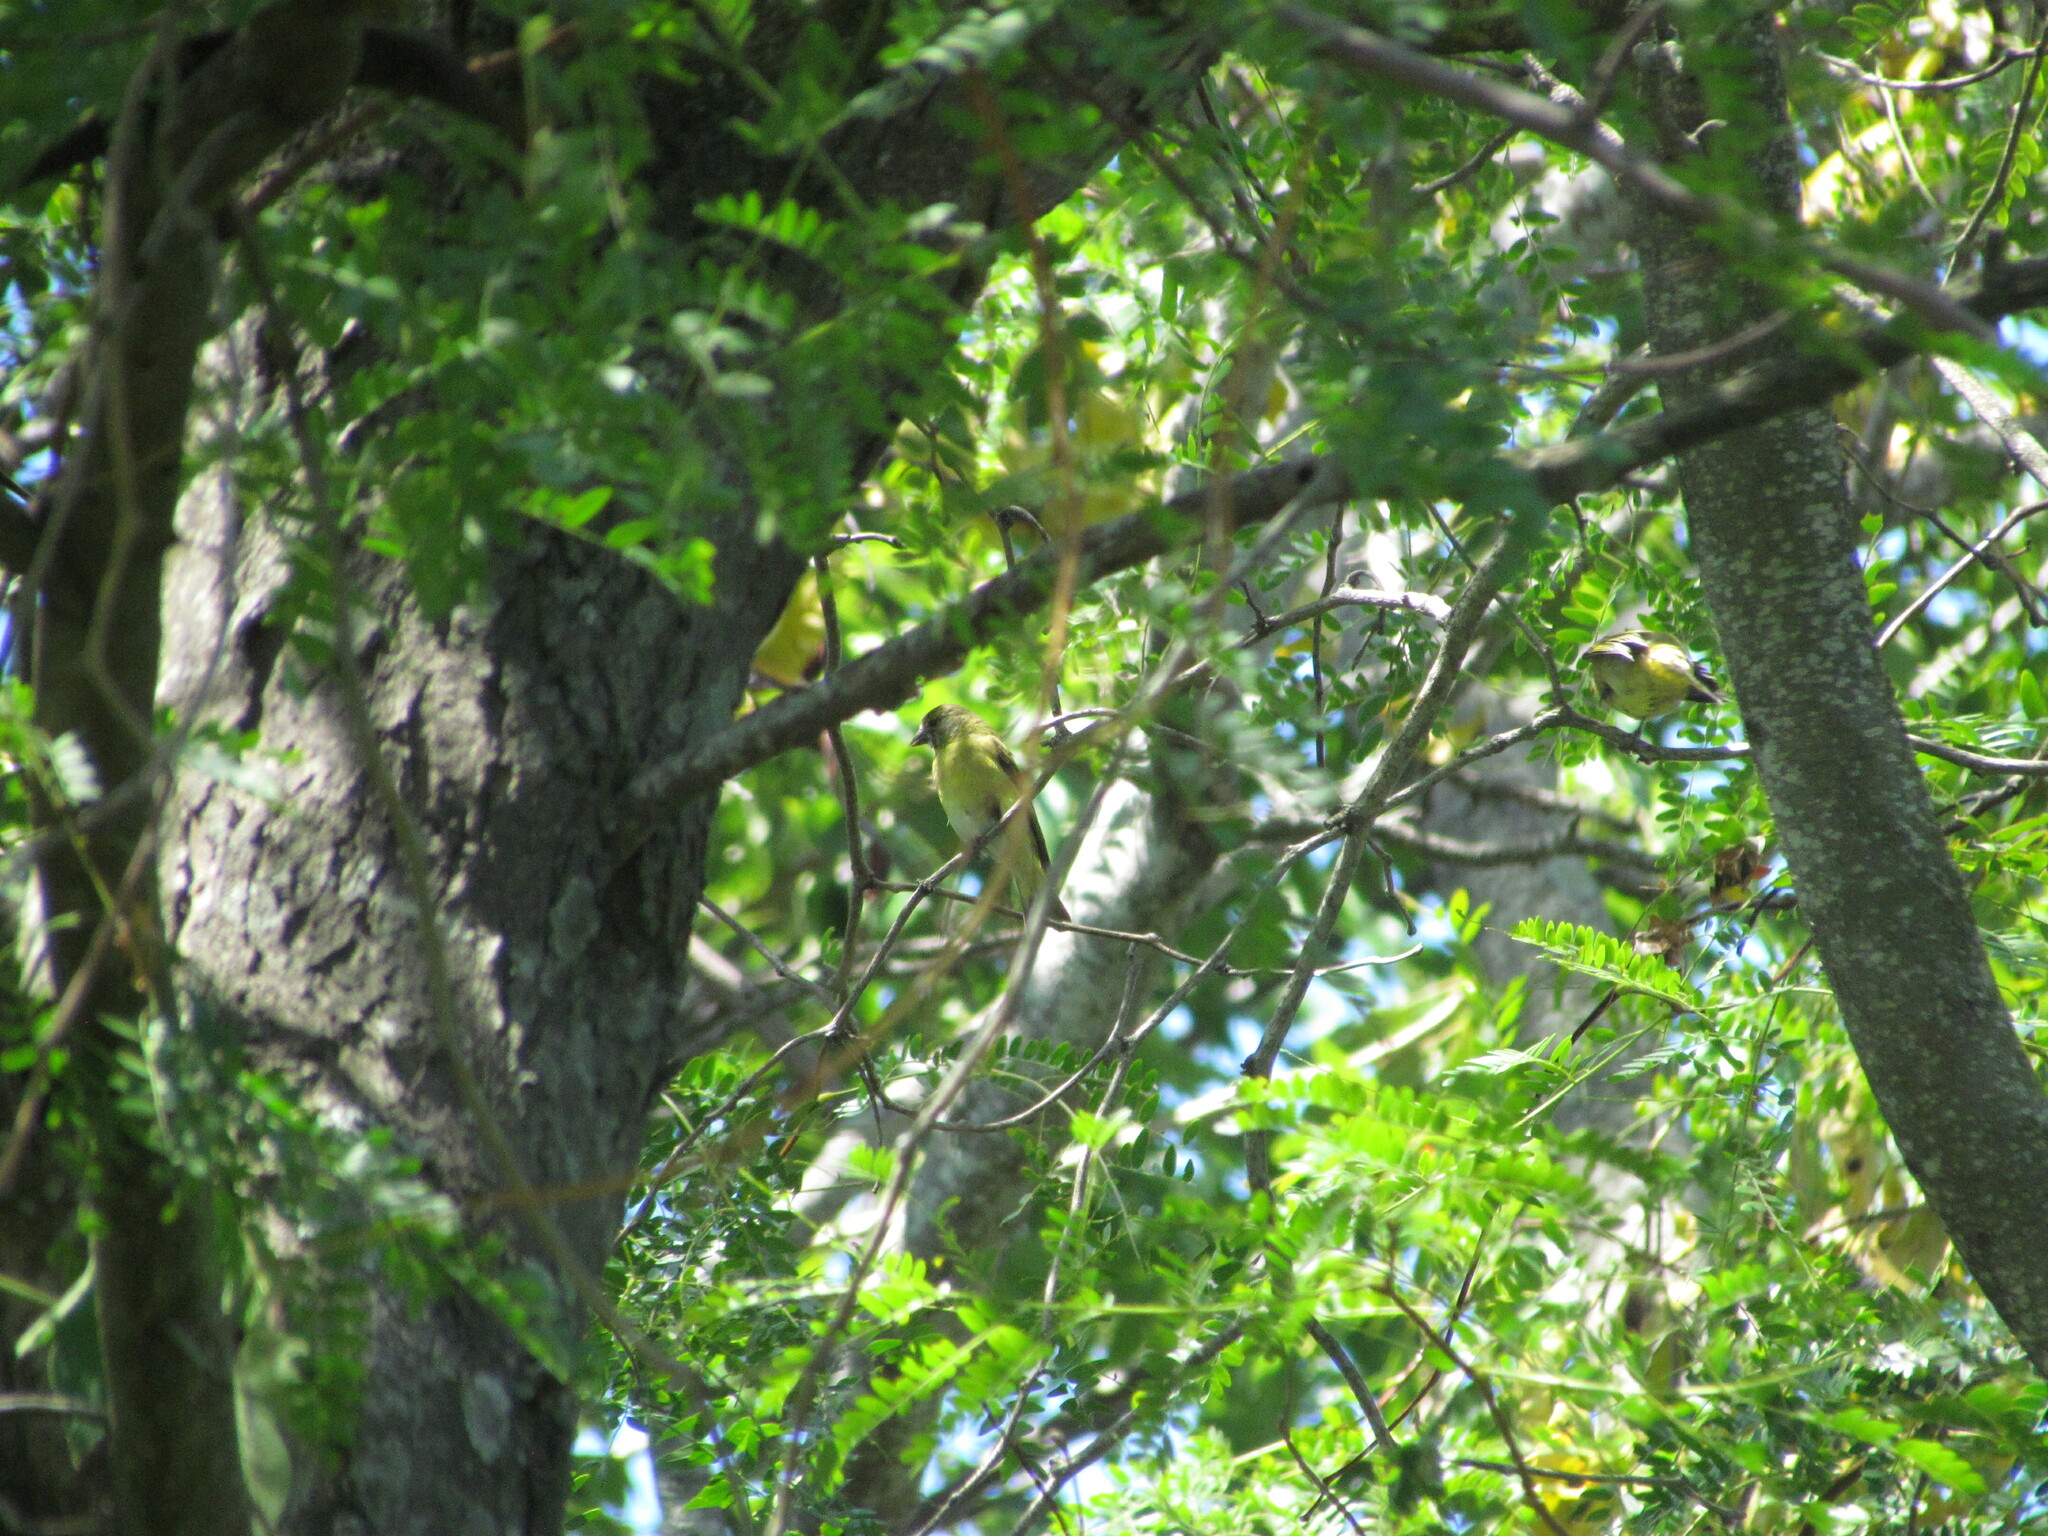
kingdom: Animalia
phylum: Chordata
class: Aves
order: Passeriformes
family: Fringillidae
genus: Spinus
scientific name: Spinus magellanicus
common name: Hooded siskin
